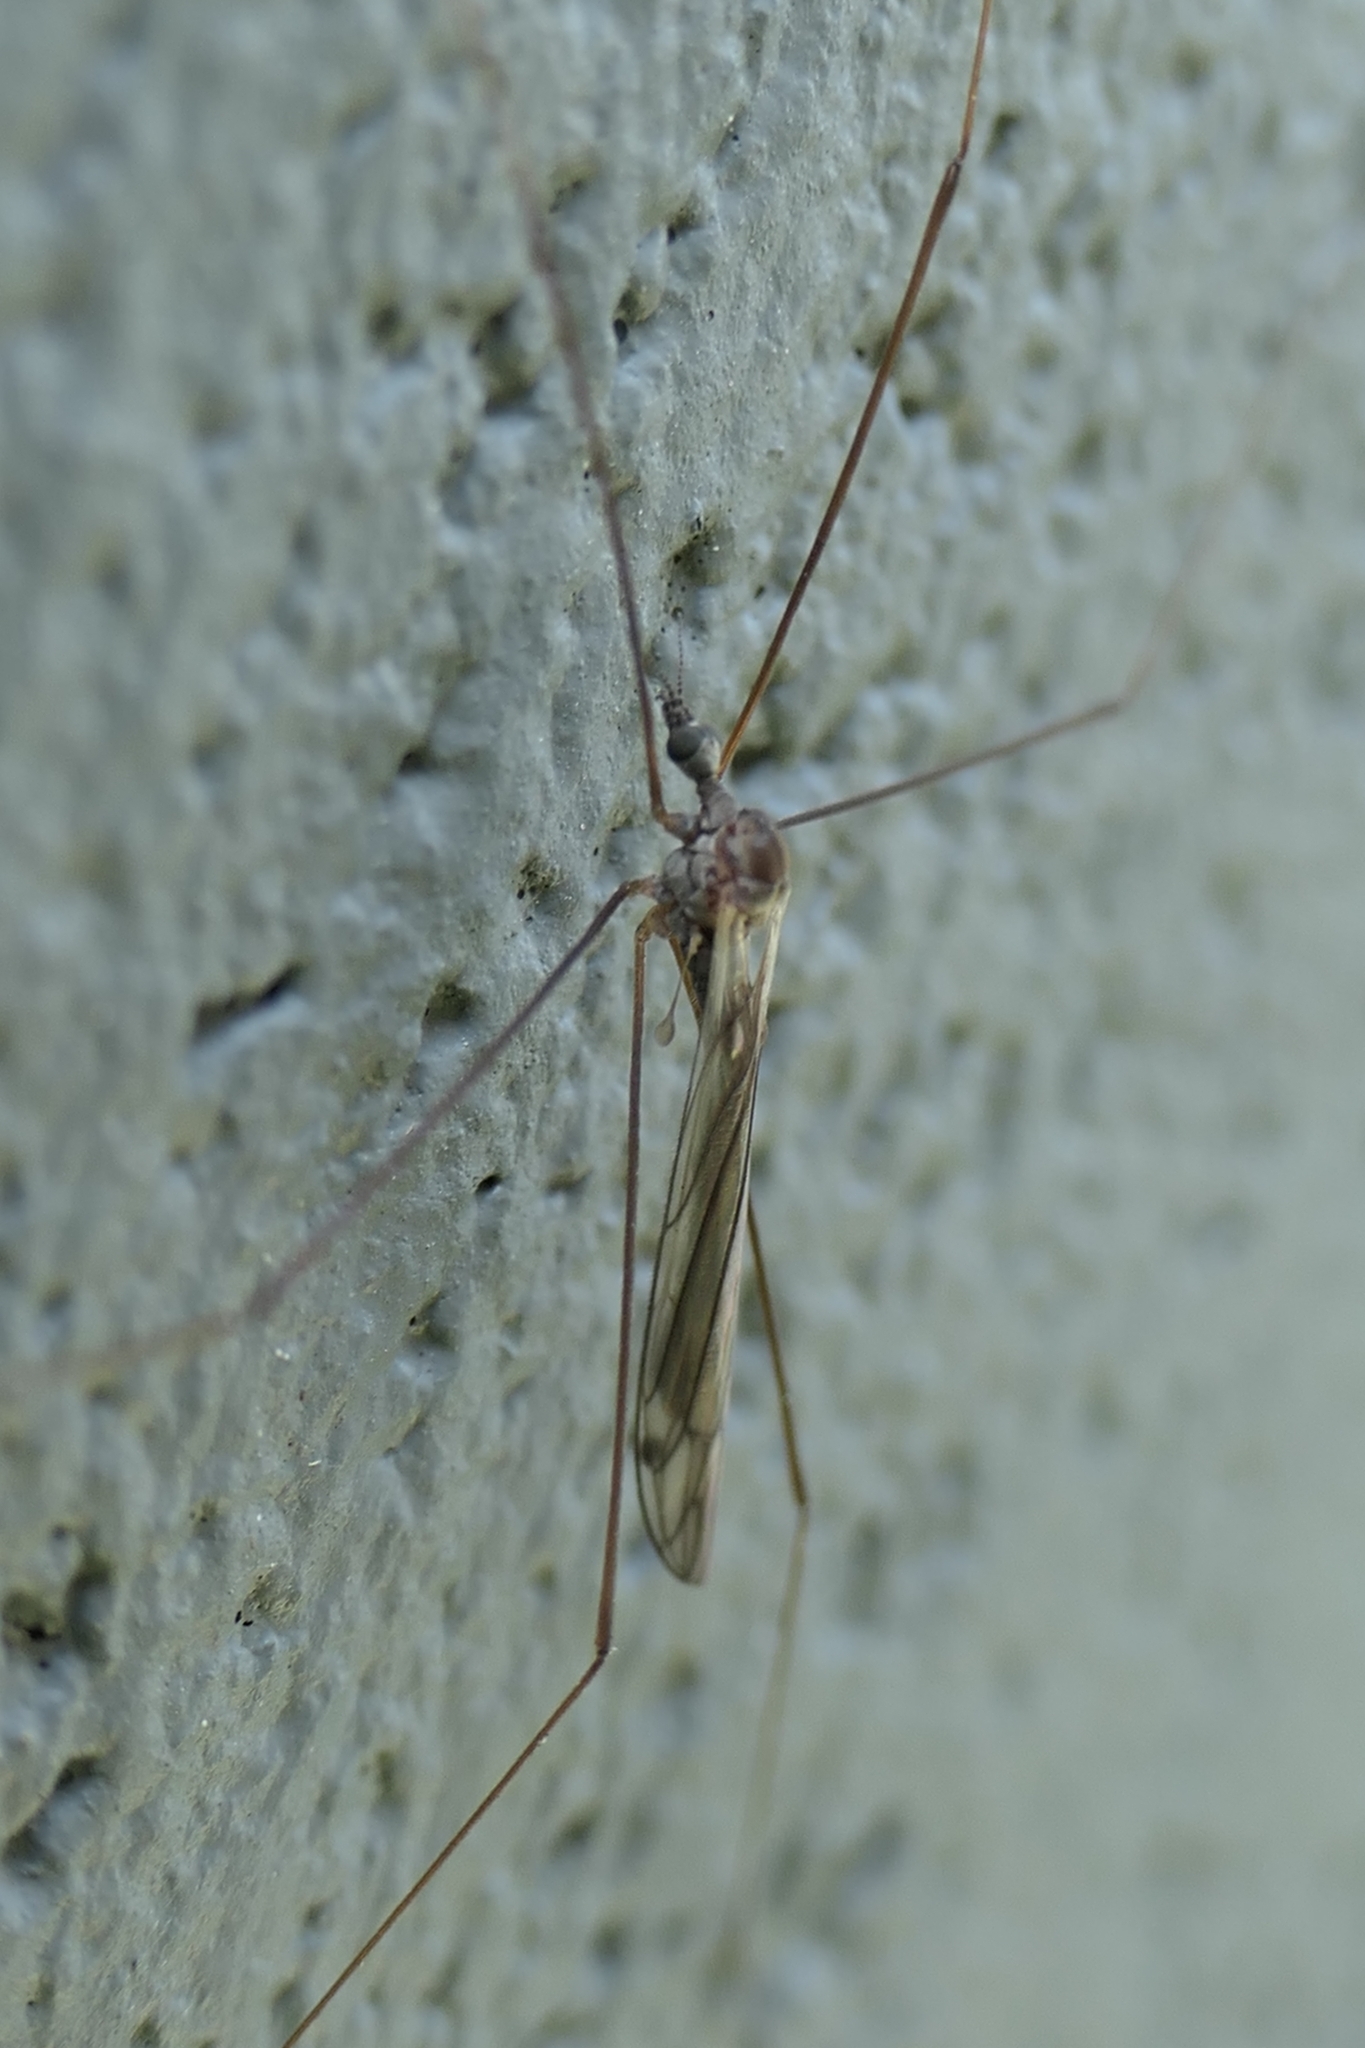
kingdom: Animalia
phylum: Arthropoda
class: Insecta
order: Diptera
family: Limoniidae
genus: Dicranomyia
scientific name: Dicranomyia aegrotans
